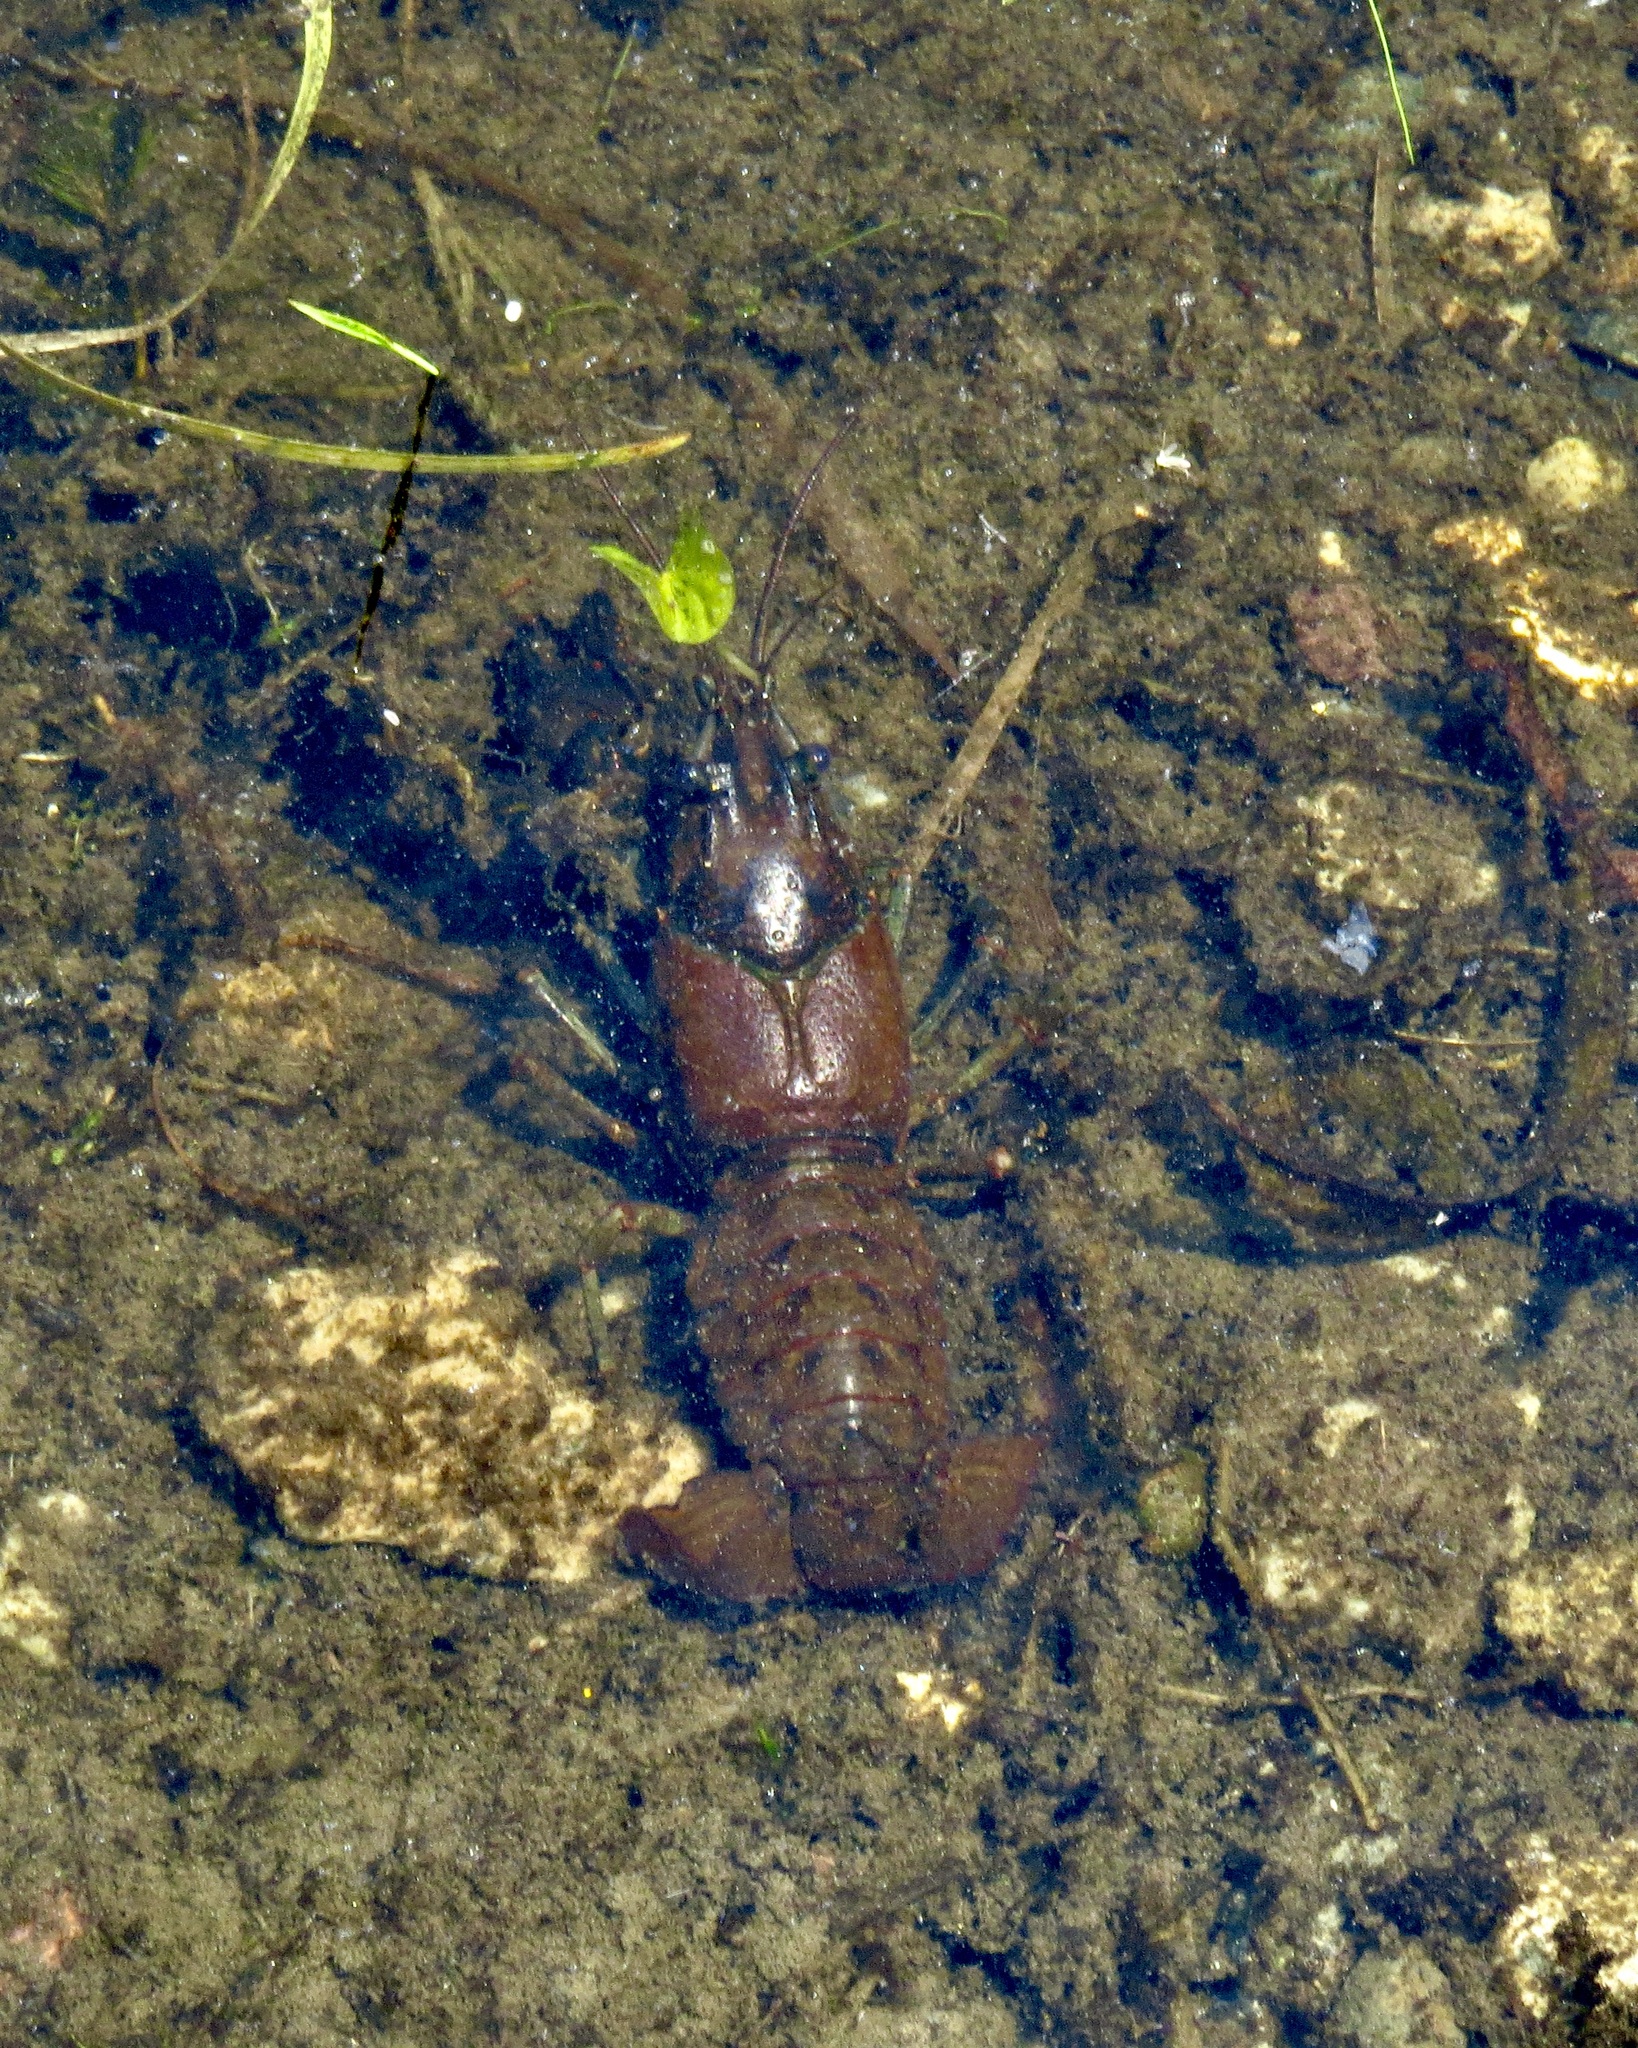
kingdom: Animalia
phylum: Arthropoda
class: Malacostraca
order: Decapoda
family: Cambaridae
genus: Faxonius
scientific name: Faxonius virilis
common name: Virile crayfish
